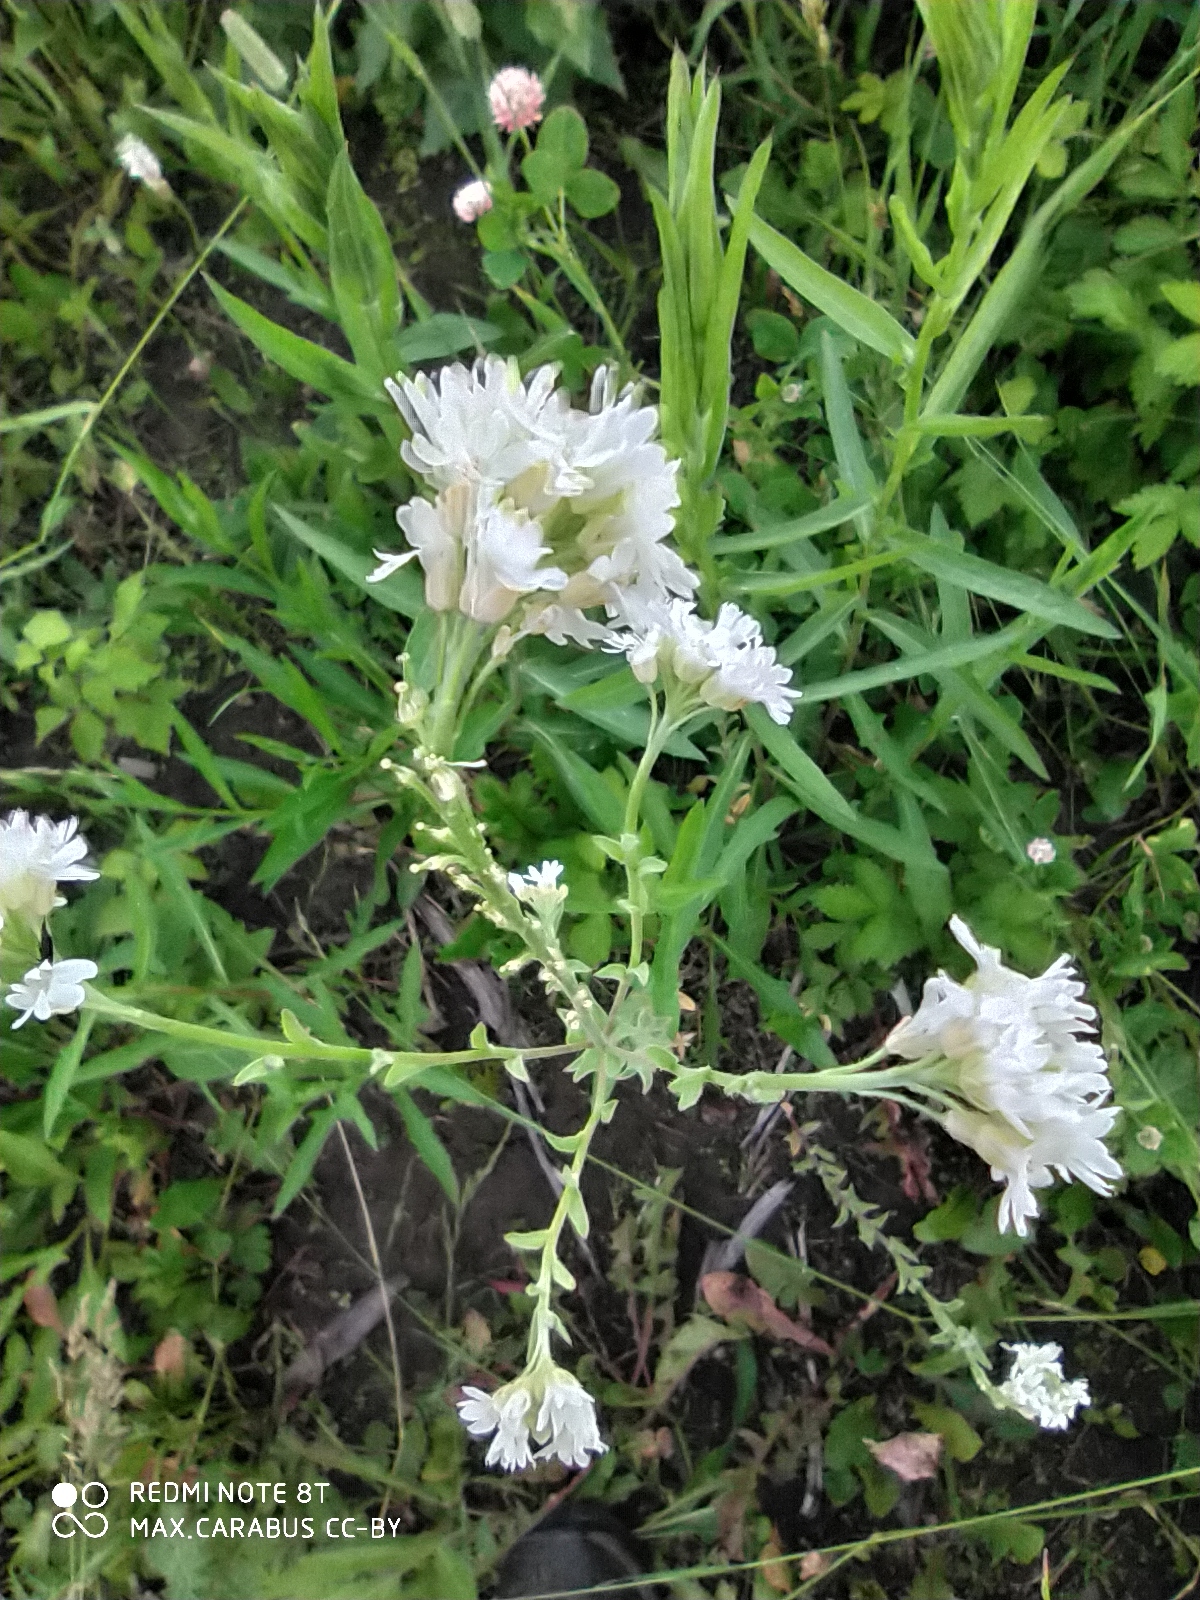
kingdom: Plantae
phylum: Tracheophyta
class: Magnoliopsida
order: Brassicales
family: Brassicaceae
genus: Berteroa
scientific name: Berteroa incana
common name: Hoary alison
